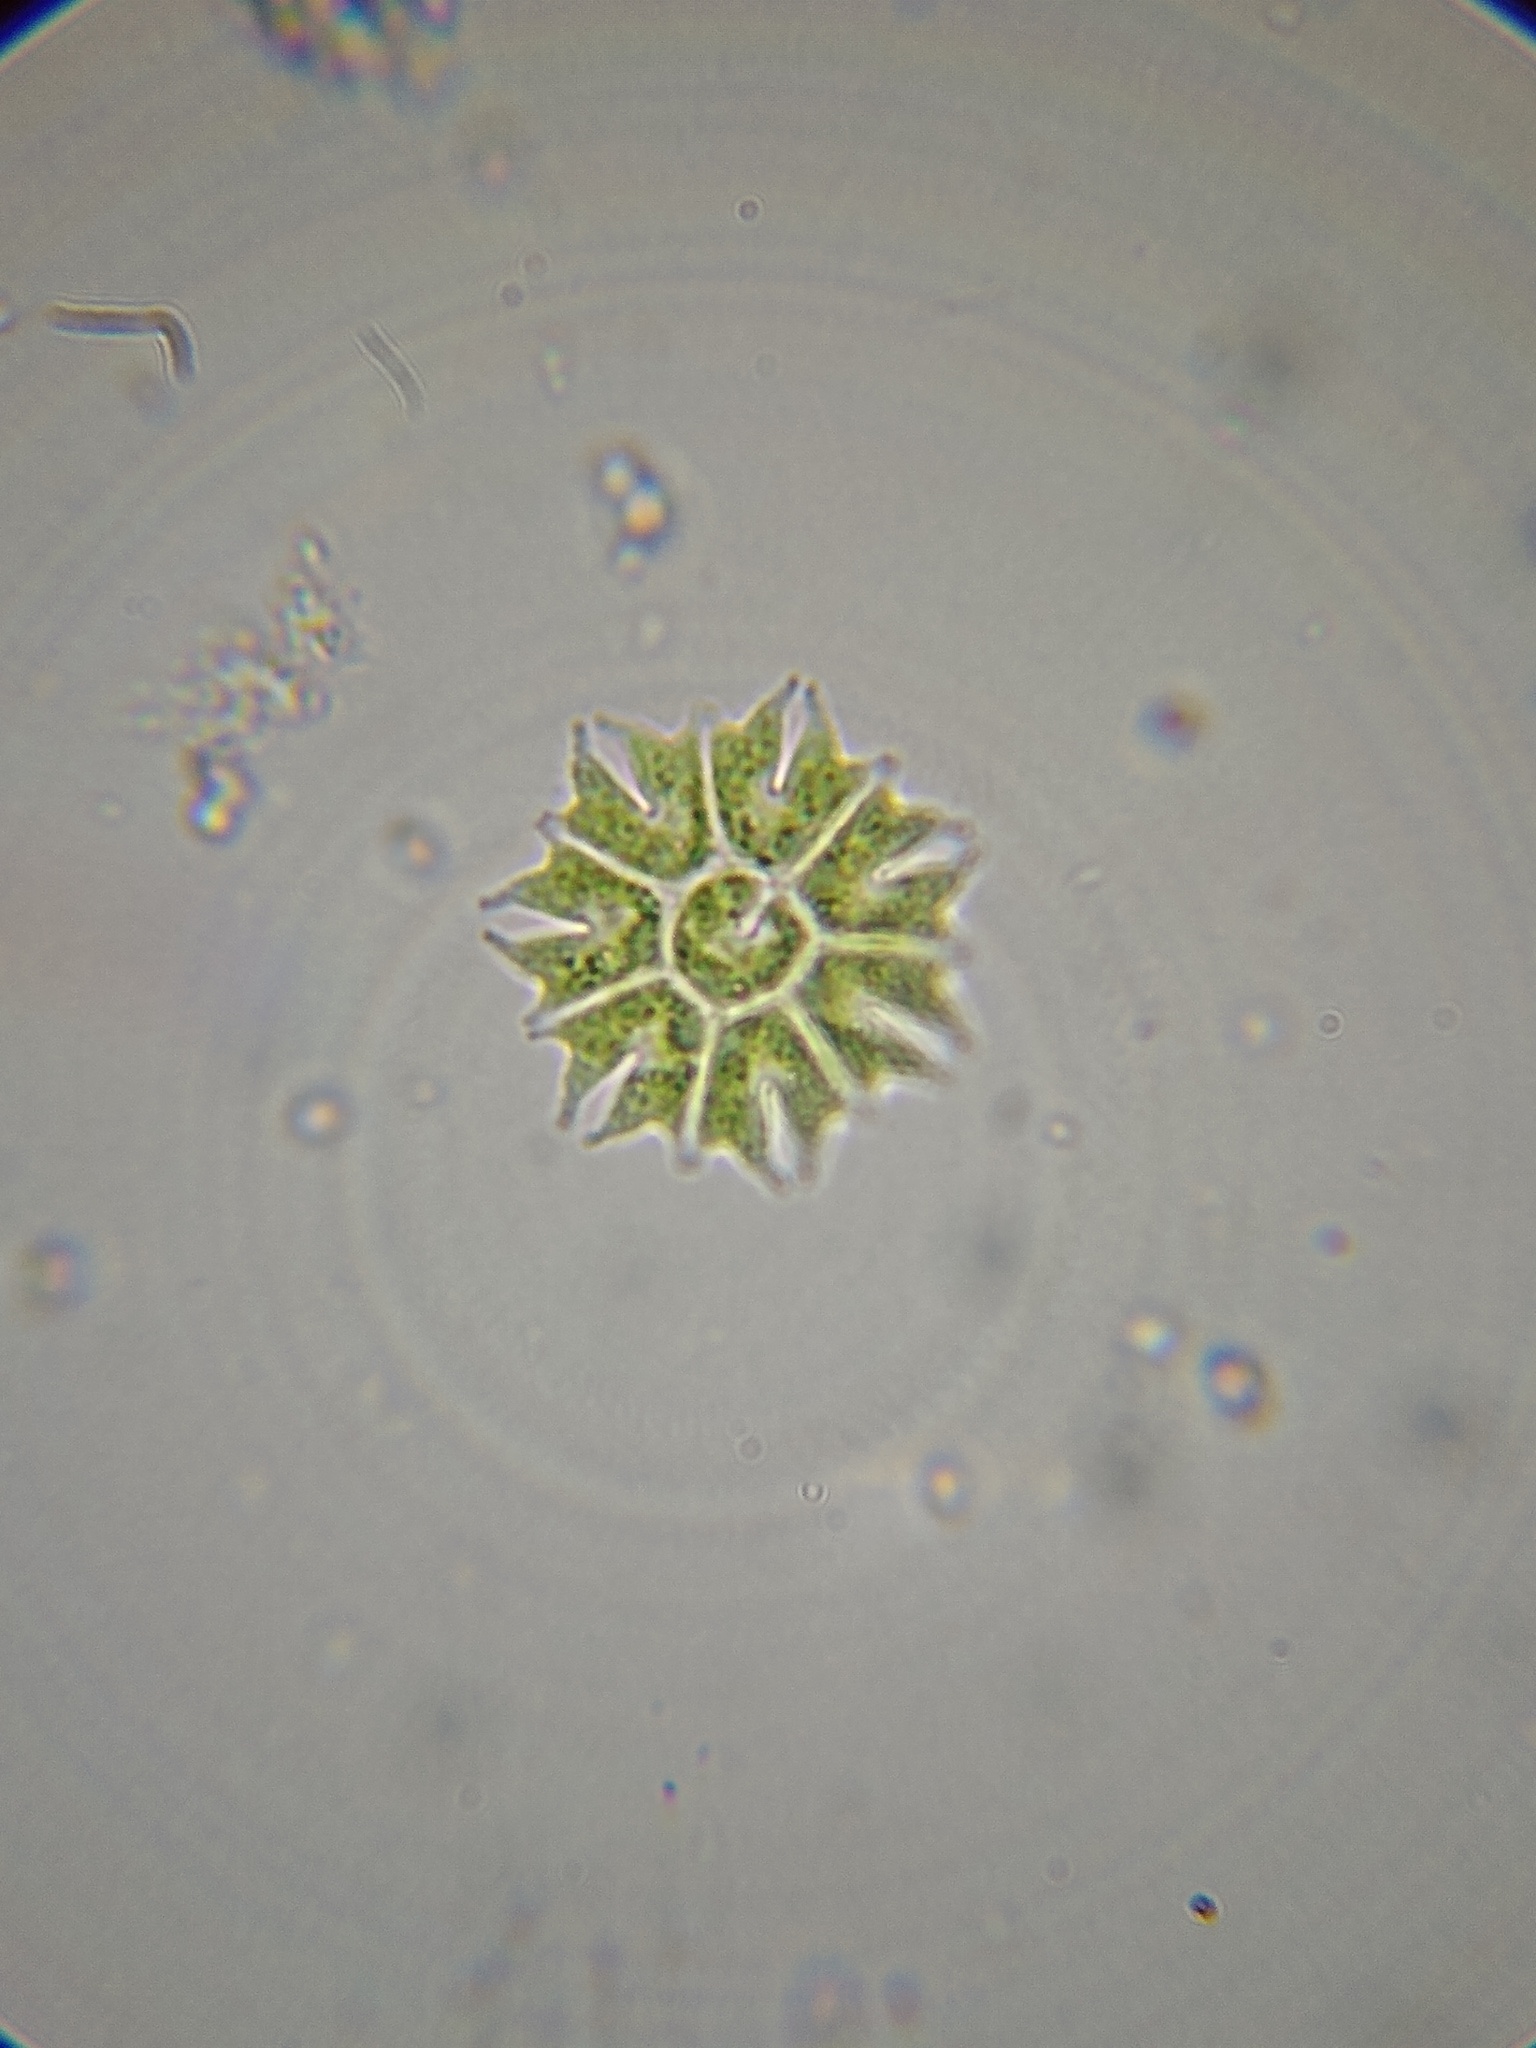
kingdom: Plantae
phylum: Chlorophyta
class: Chlorophyceae
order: Sphaeropleales
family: Hydrodictyaceae
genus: Stauridium
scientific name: Stauridium tetras
